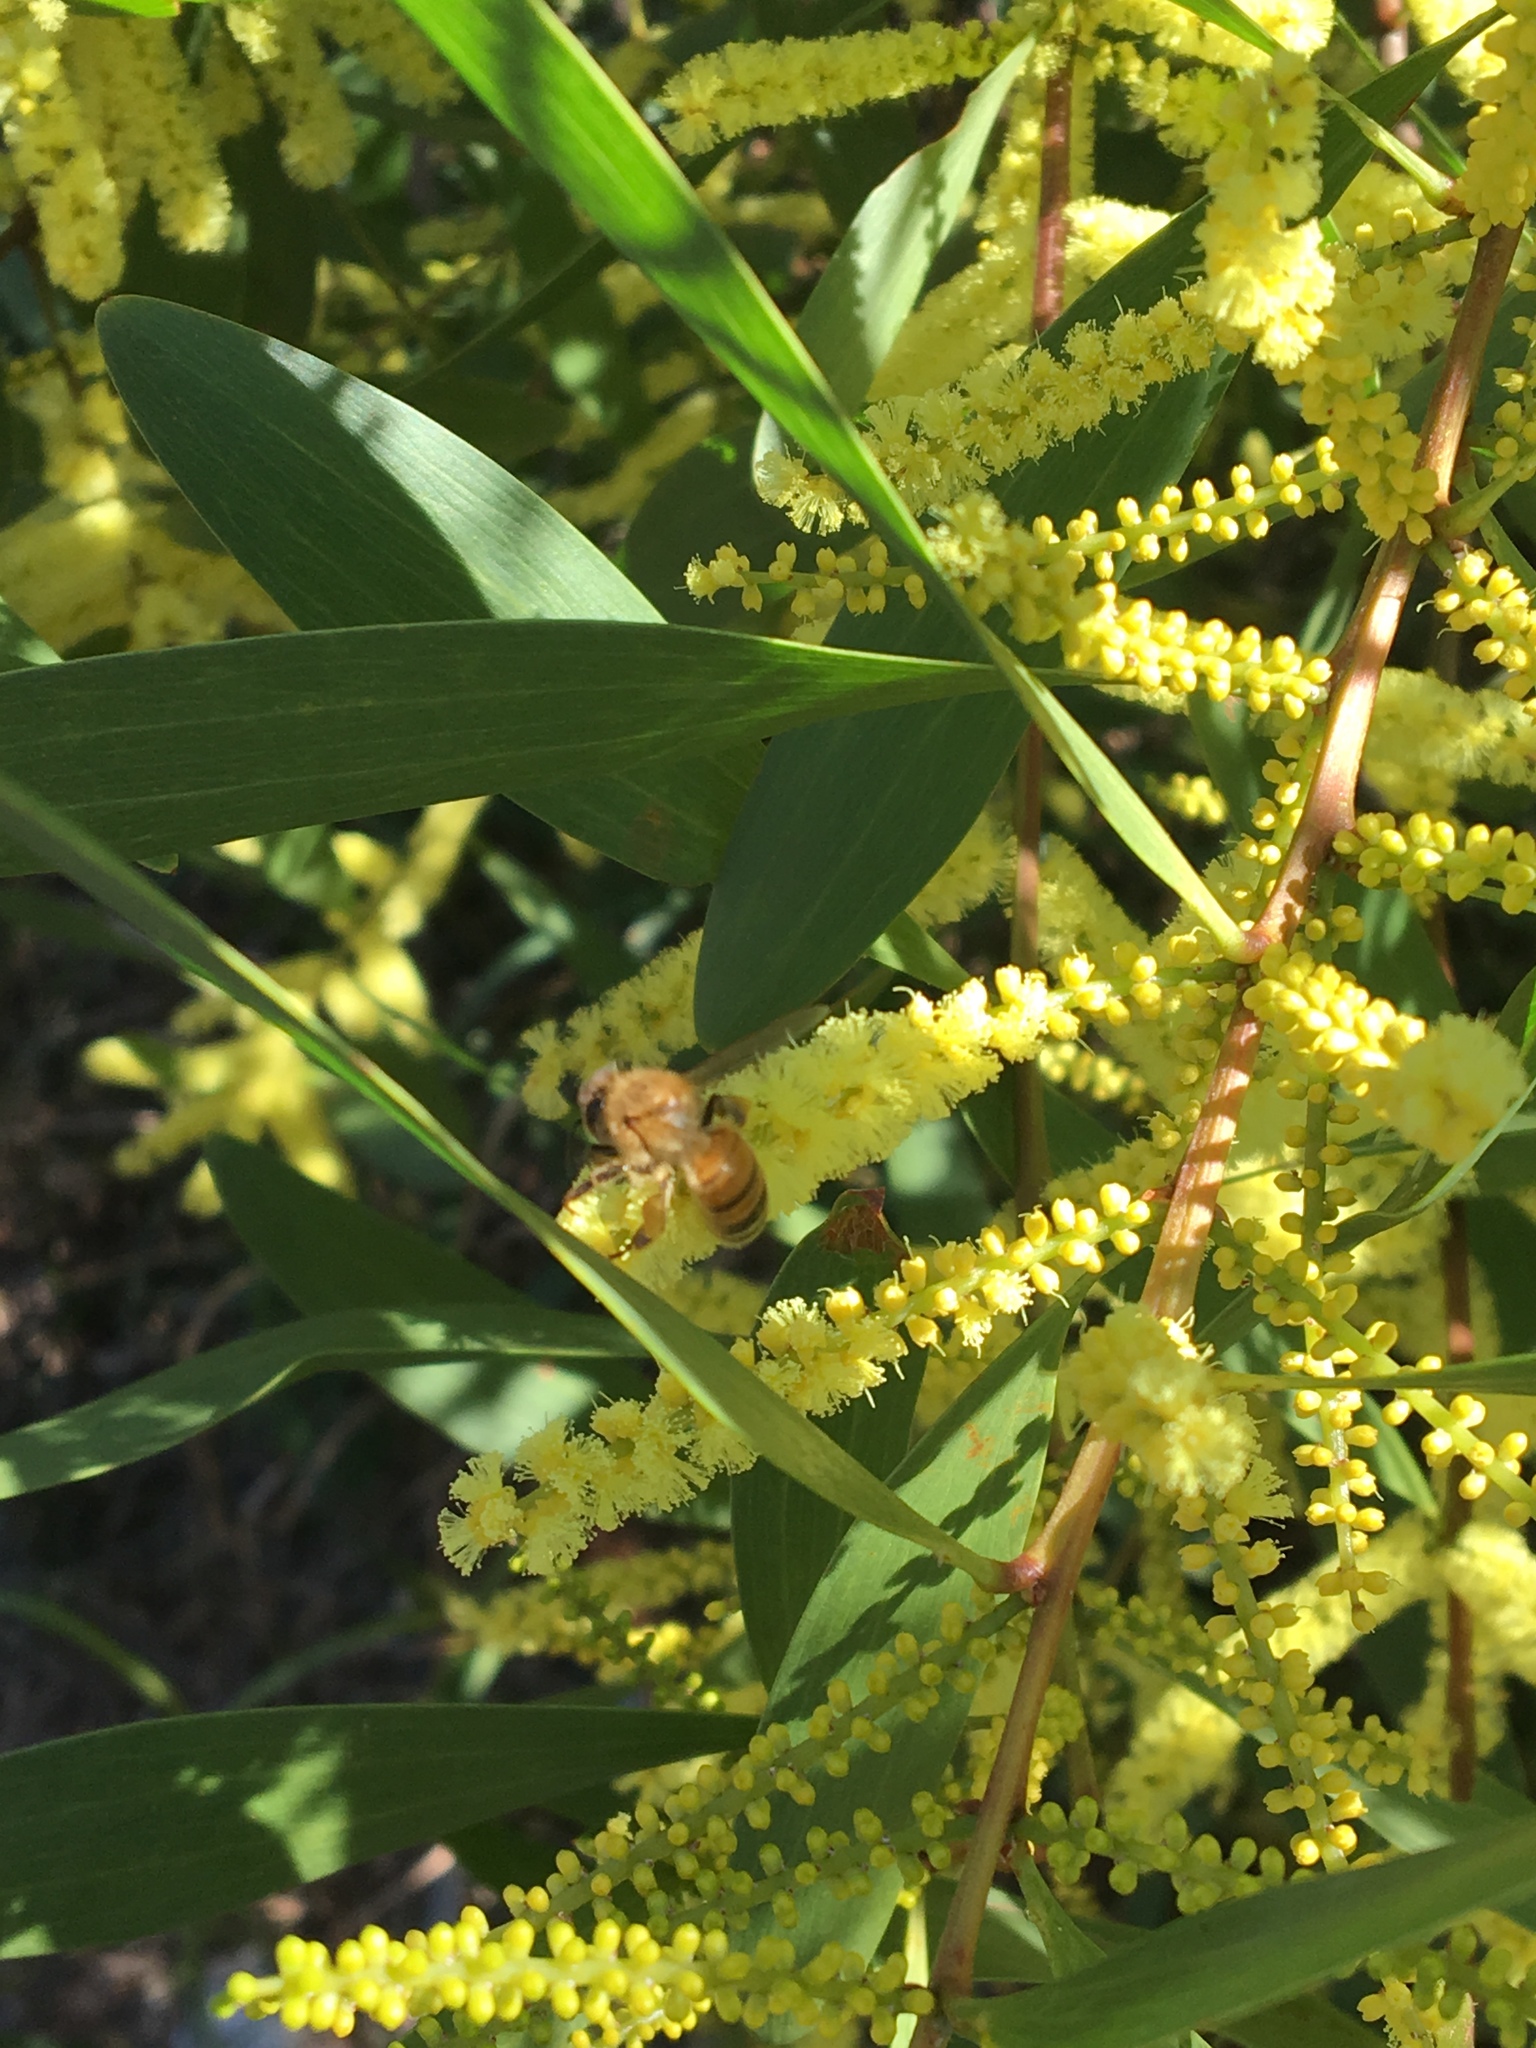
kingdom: Animalia
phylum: Arthropoda
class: Insecta
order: Hymenoptera
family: Apidae
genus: Apis
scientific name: Apis mellifera
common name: Honey bee
